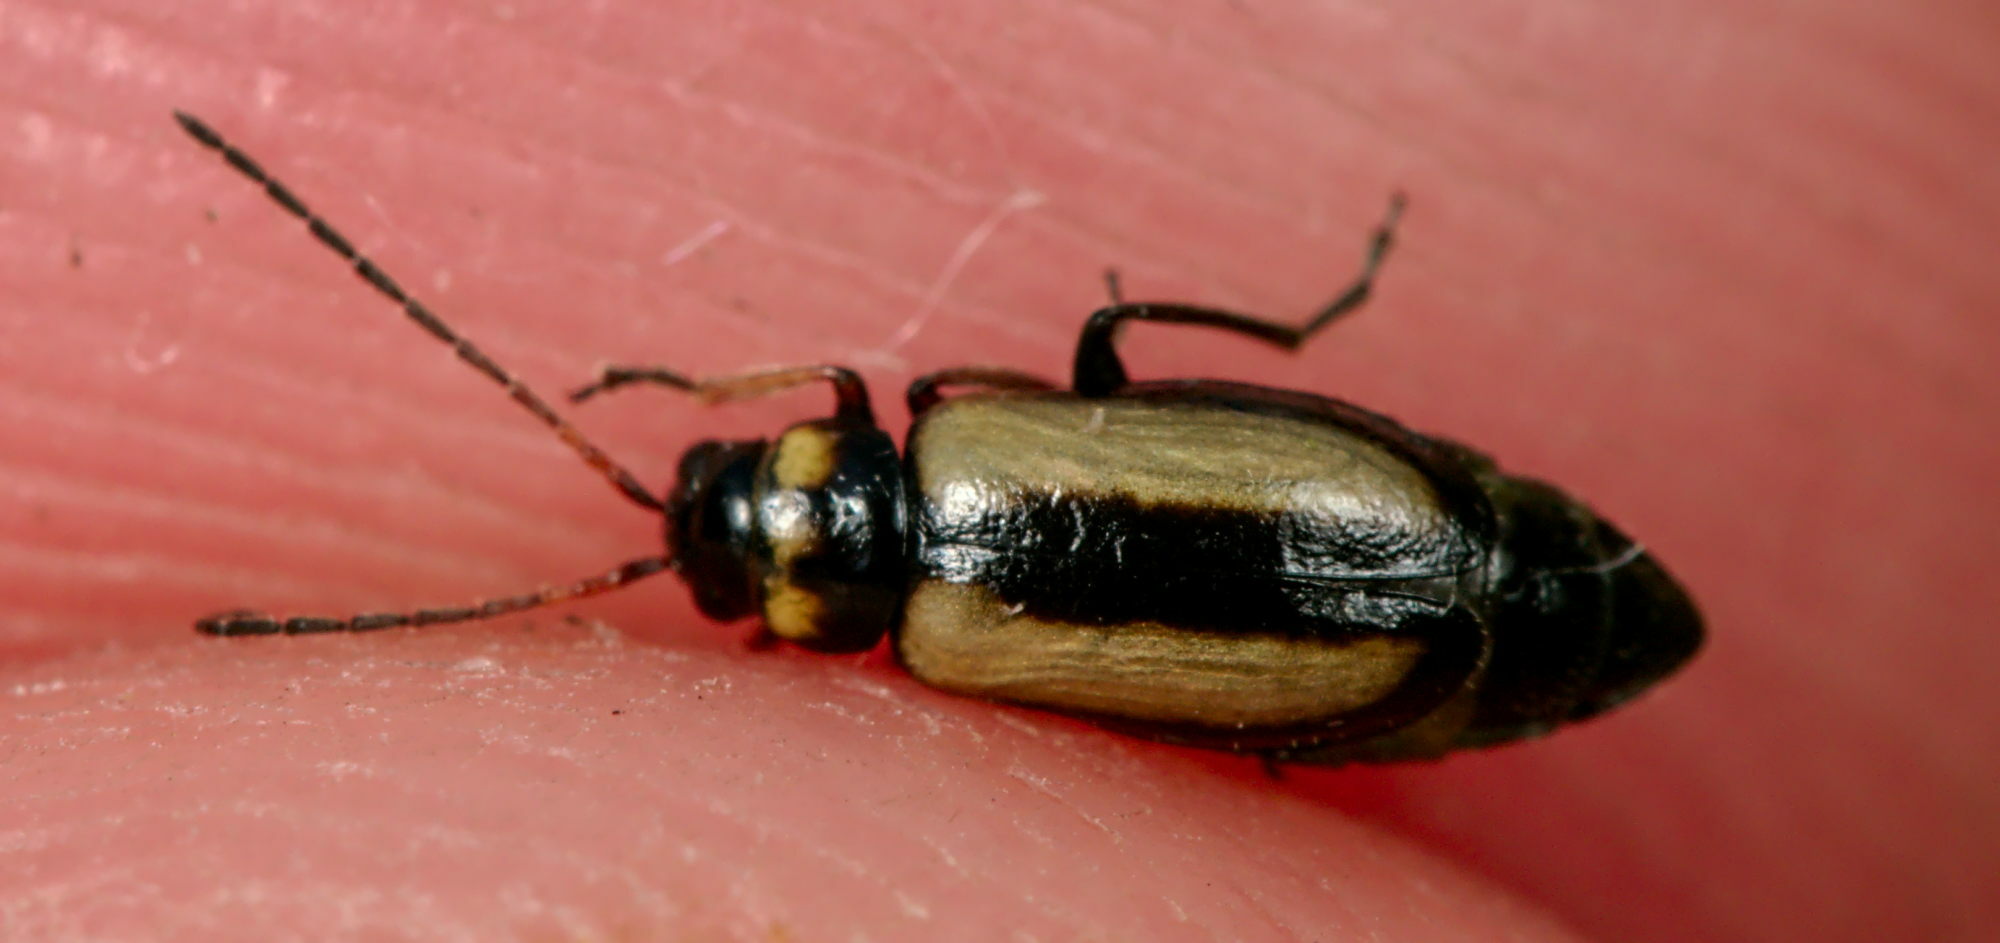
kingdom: Animalia
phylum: Arthropoda
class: Insecta
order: Coleoptera
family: Chrysomelidae
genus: Calomicrus
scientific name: Calomicrus circumfusus
